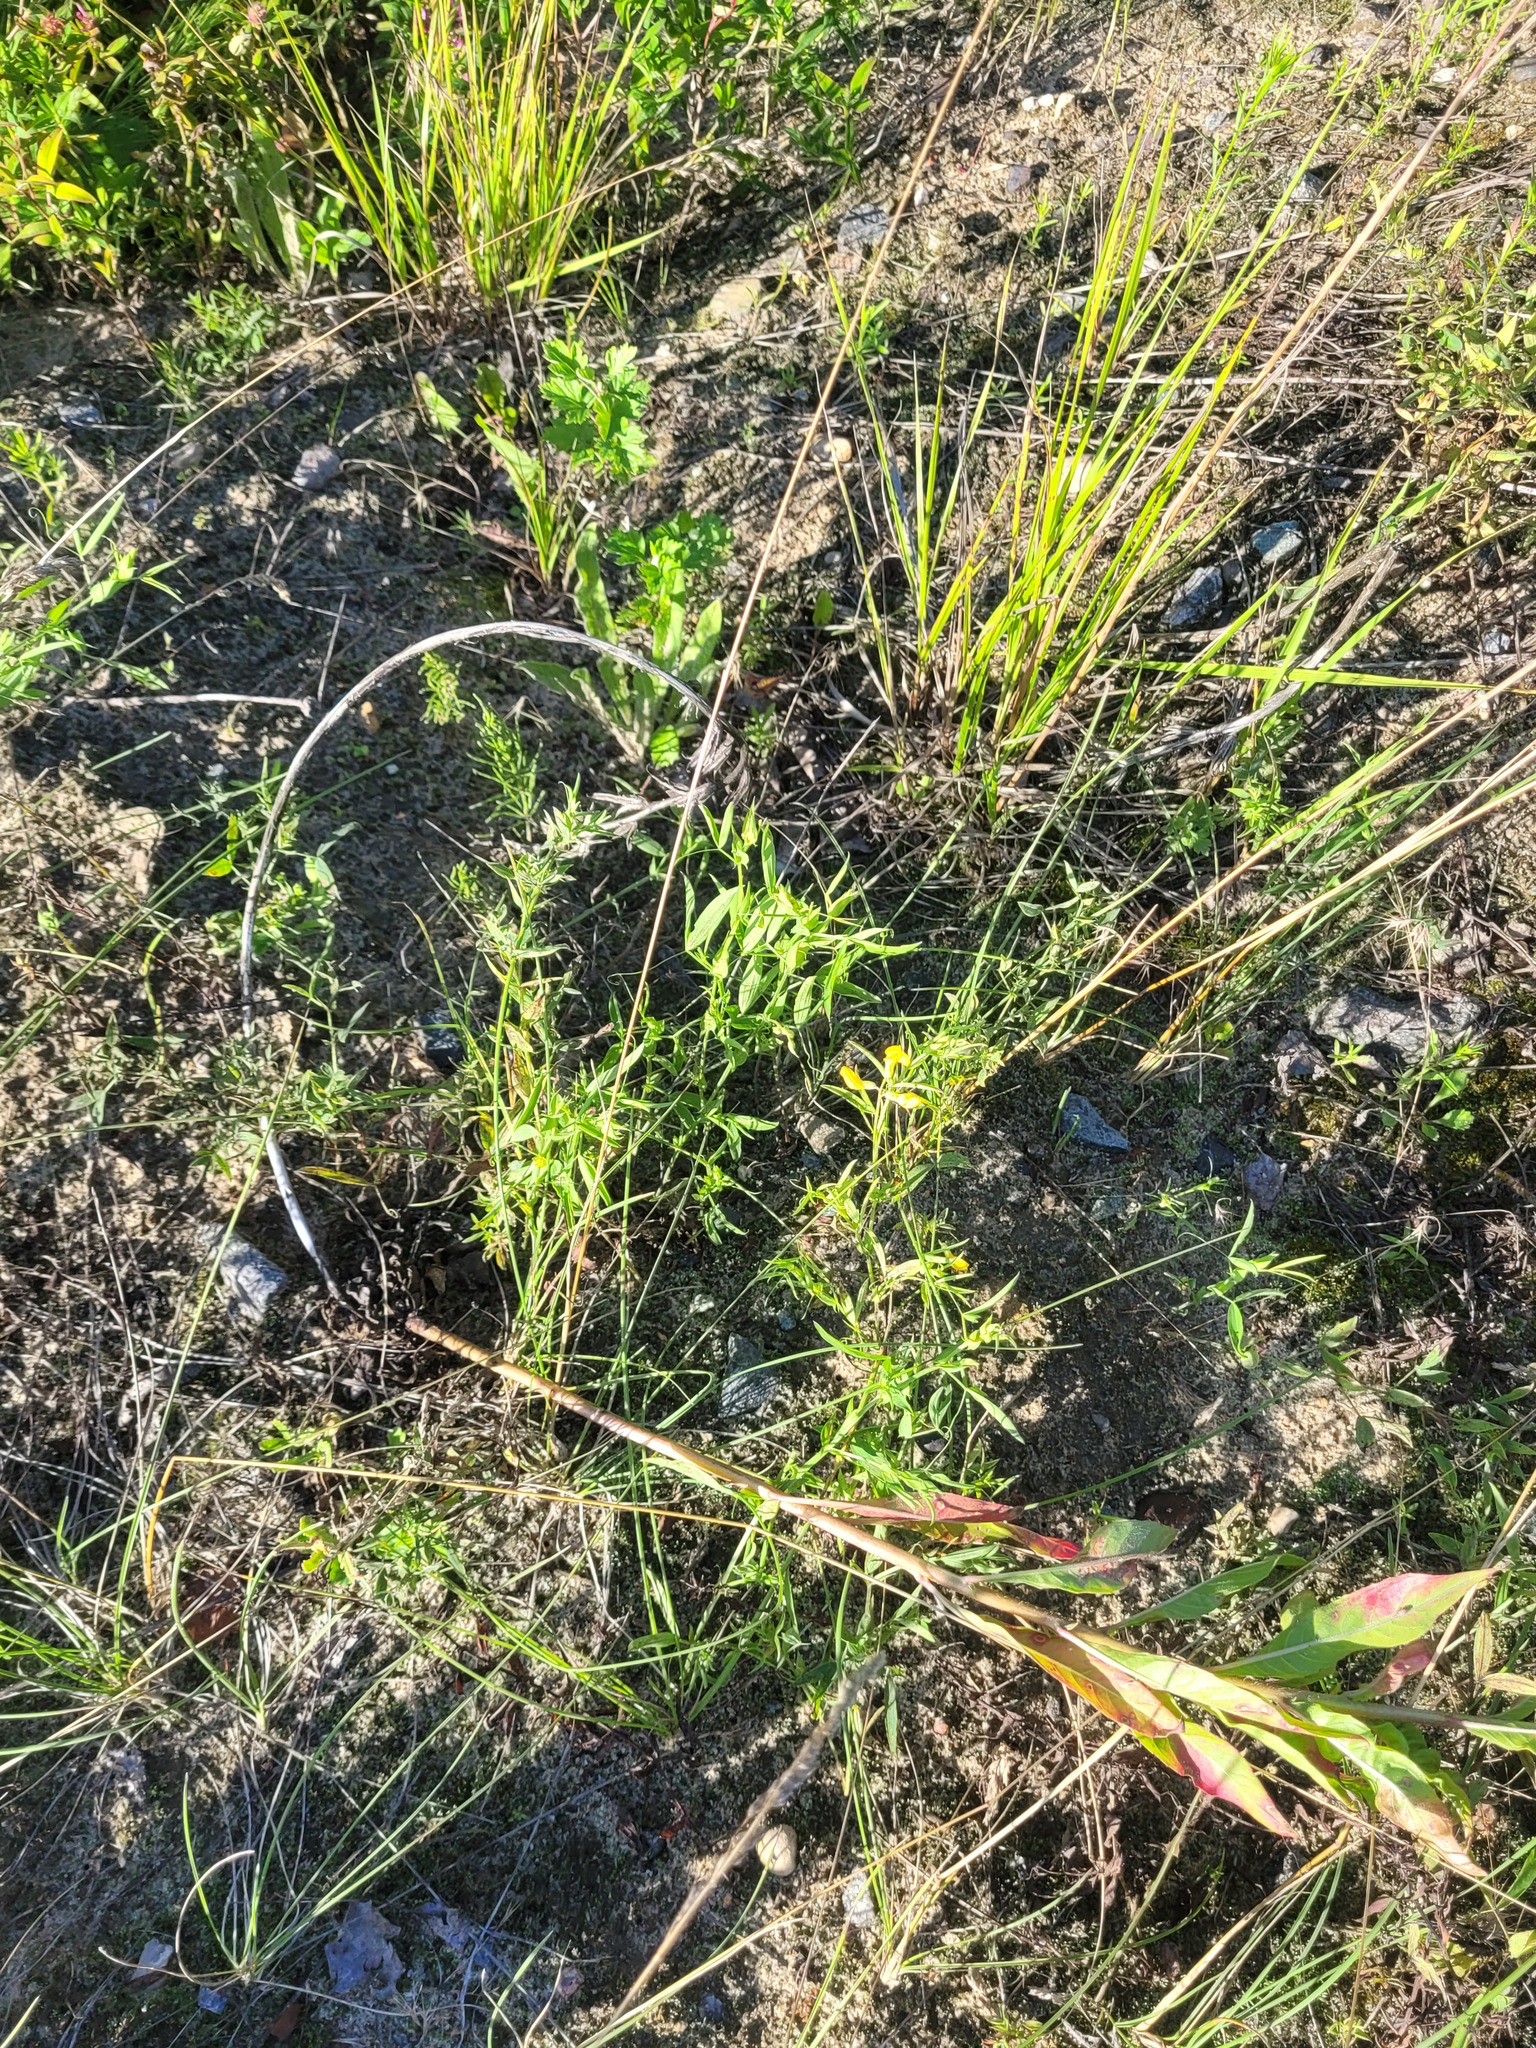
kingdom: Plantae
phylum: Tracheophyta
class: Magnoliopsida
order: Fabales
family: Fabaceae
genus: Lathyrus
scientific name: Lathyrus pratensis
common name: Meadow vetchling
